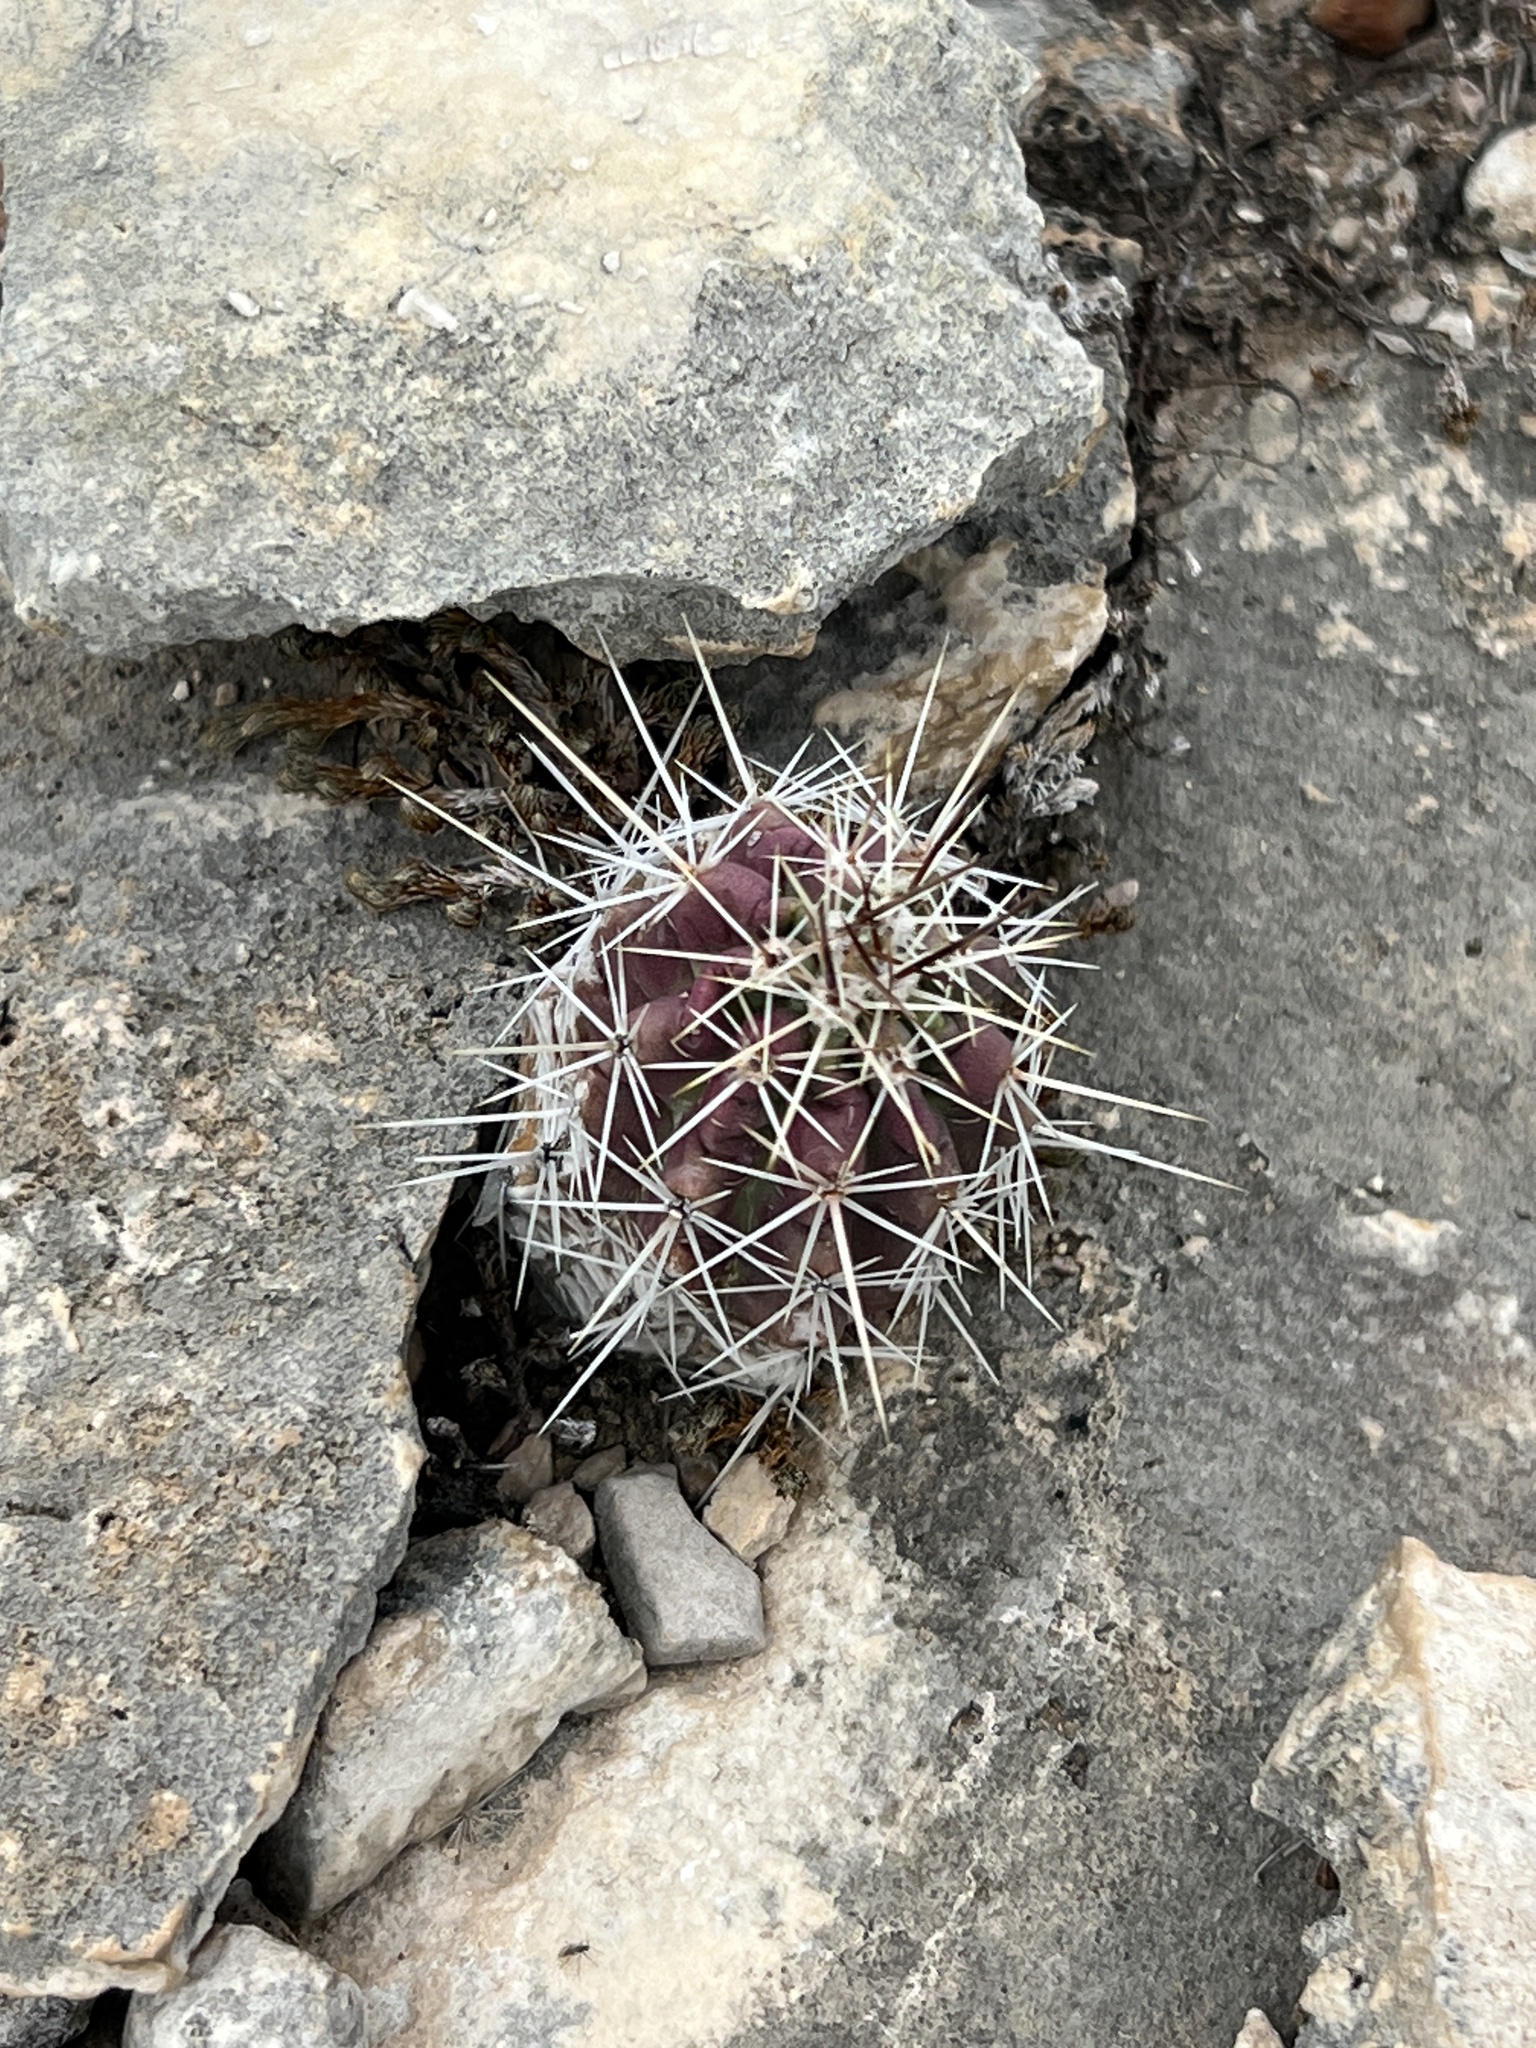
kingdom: Plantae
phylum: Tracheophyta
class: Magnoliopsida
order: Caryophyllales
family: Cactaceae
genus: Echinocereus
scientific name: Echinocereus enneacanthus
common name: Pitaya
